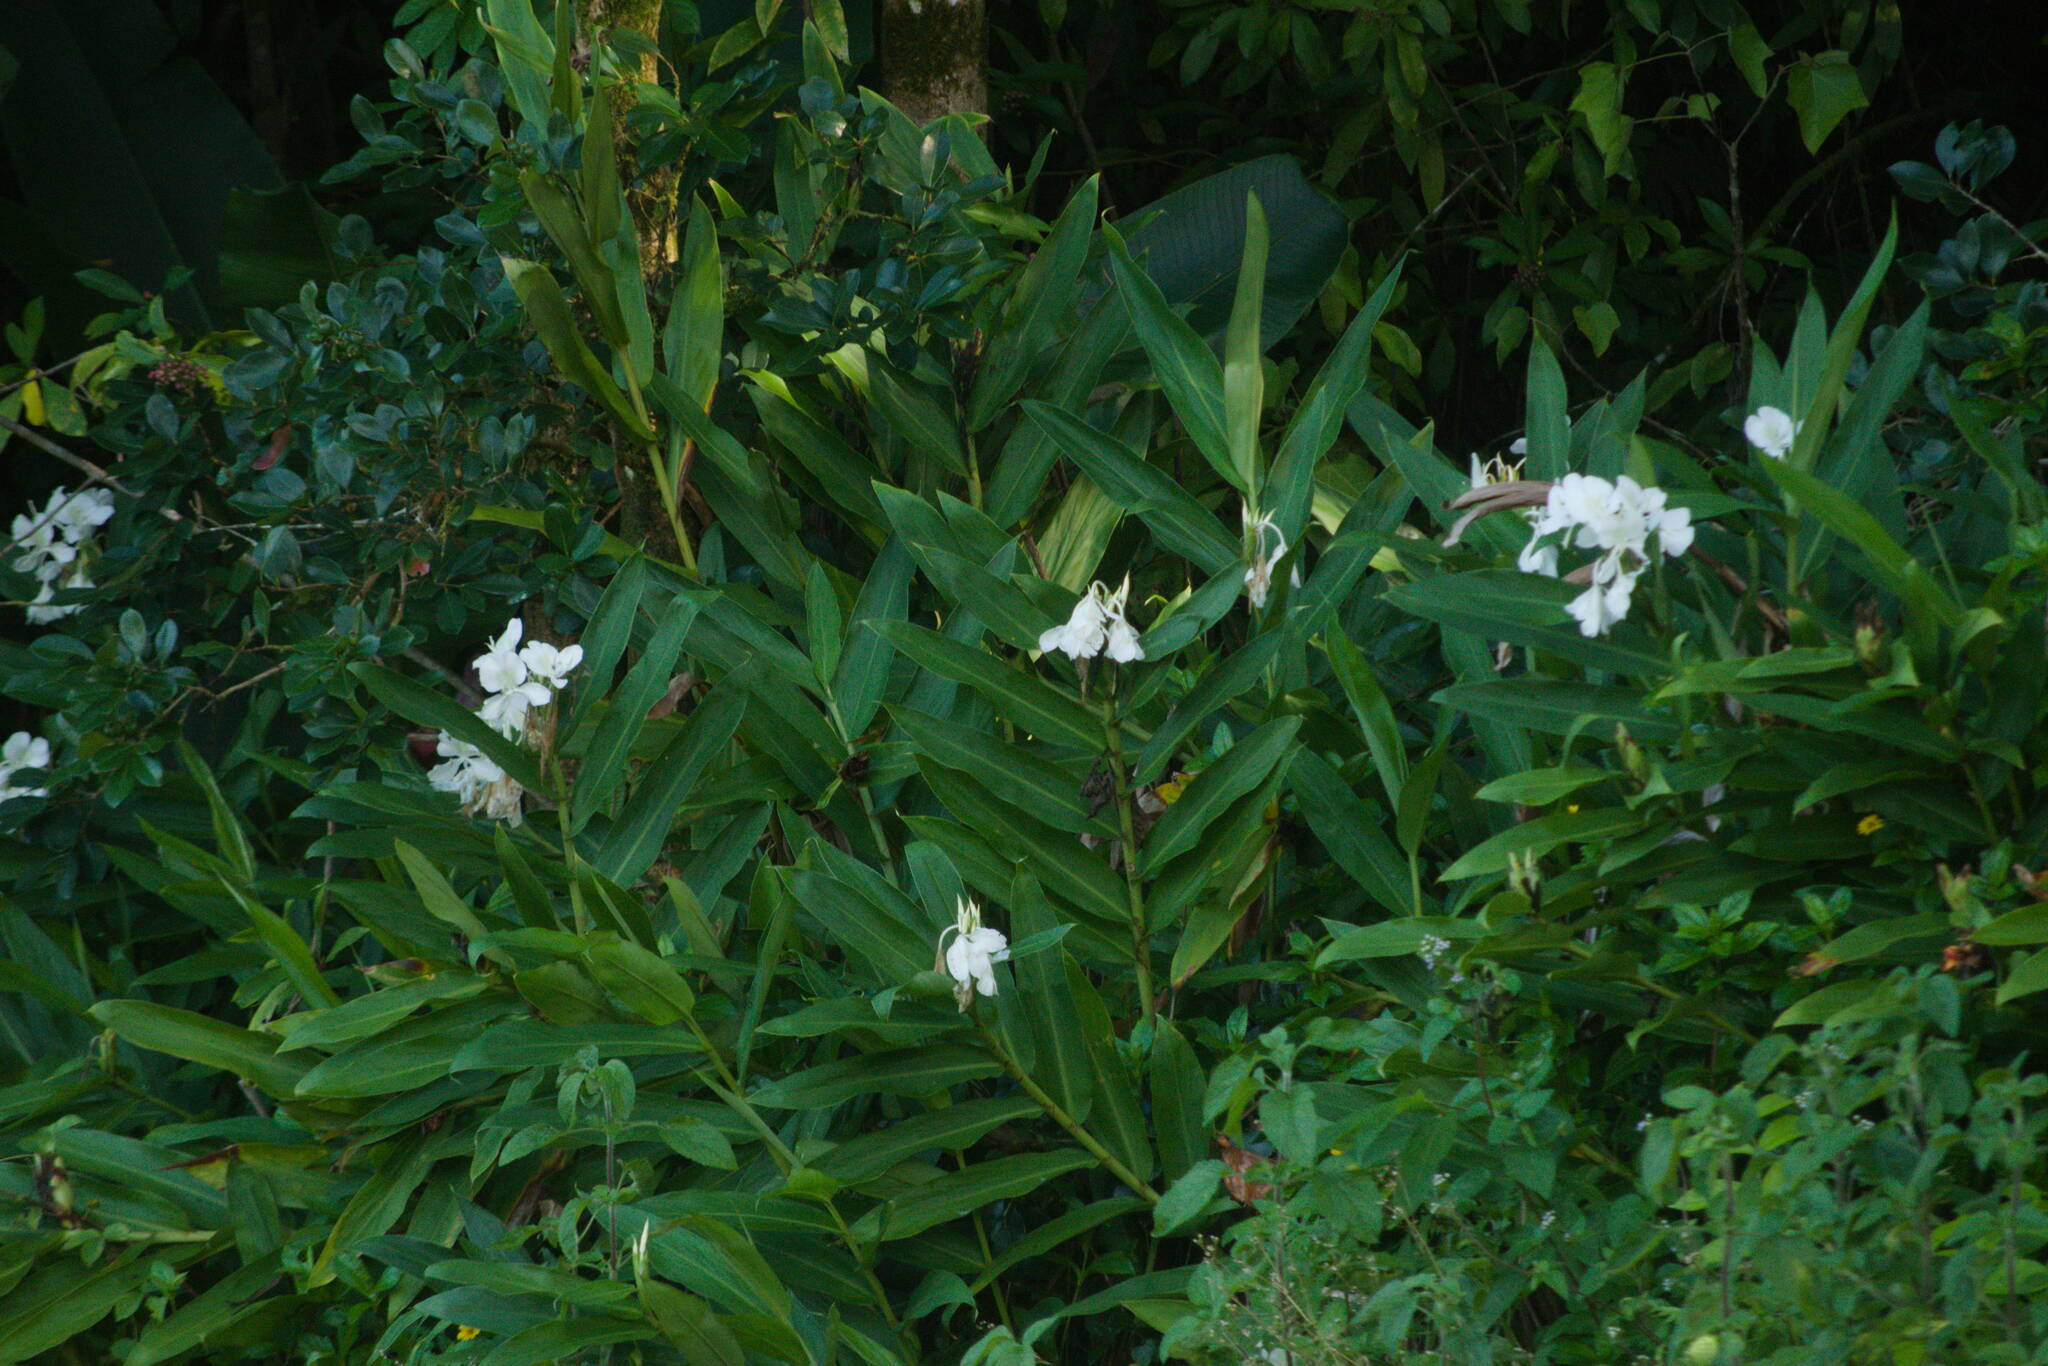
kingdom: Plantae
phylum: Tracheophyta
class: Liliopsida
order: Zingiberales
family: Zingiberaceae
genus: Hedychium
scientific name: Hedychium coronarium
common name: White garland-lily
